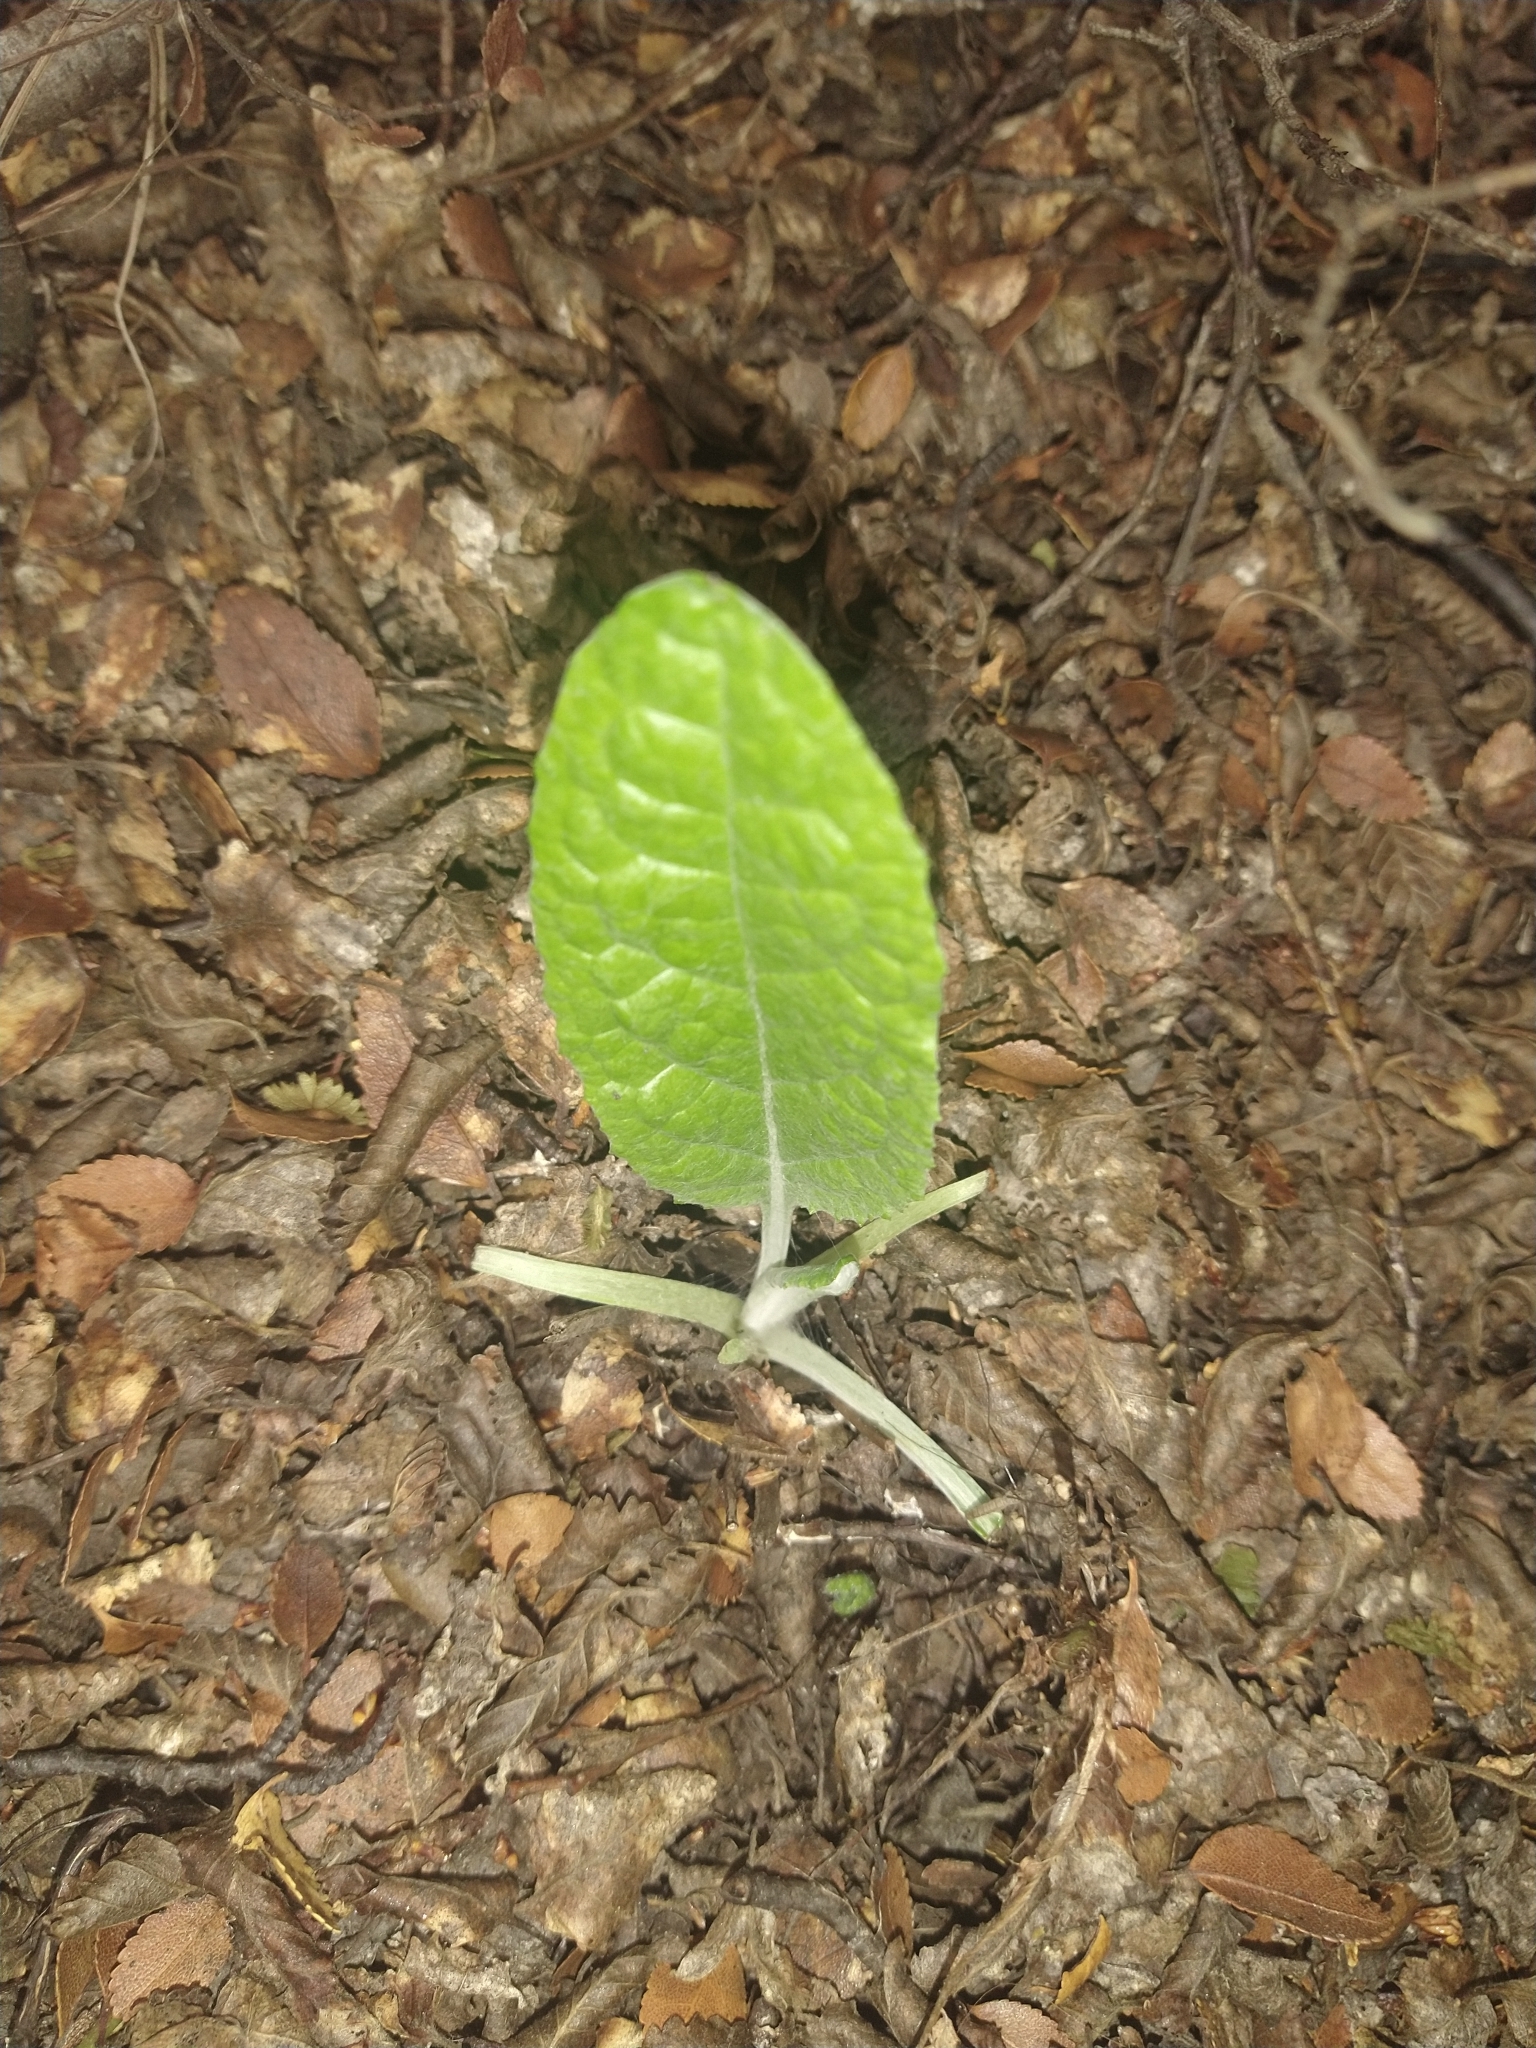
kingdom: Plantae
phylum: Tracheophyta
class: Magnoliopsida
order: Asterales
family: Asteraceae
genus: Adenocaulon
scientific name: Adenocaulon chilense
